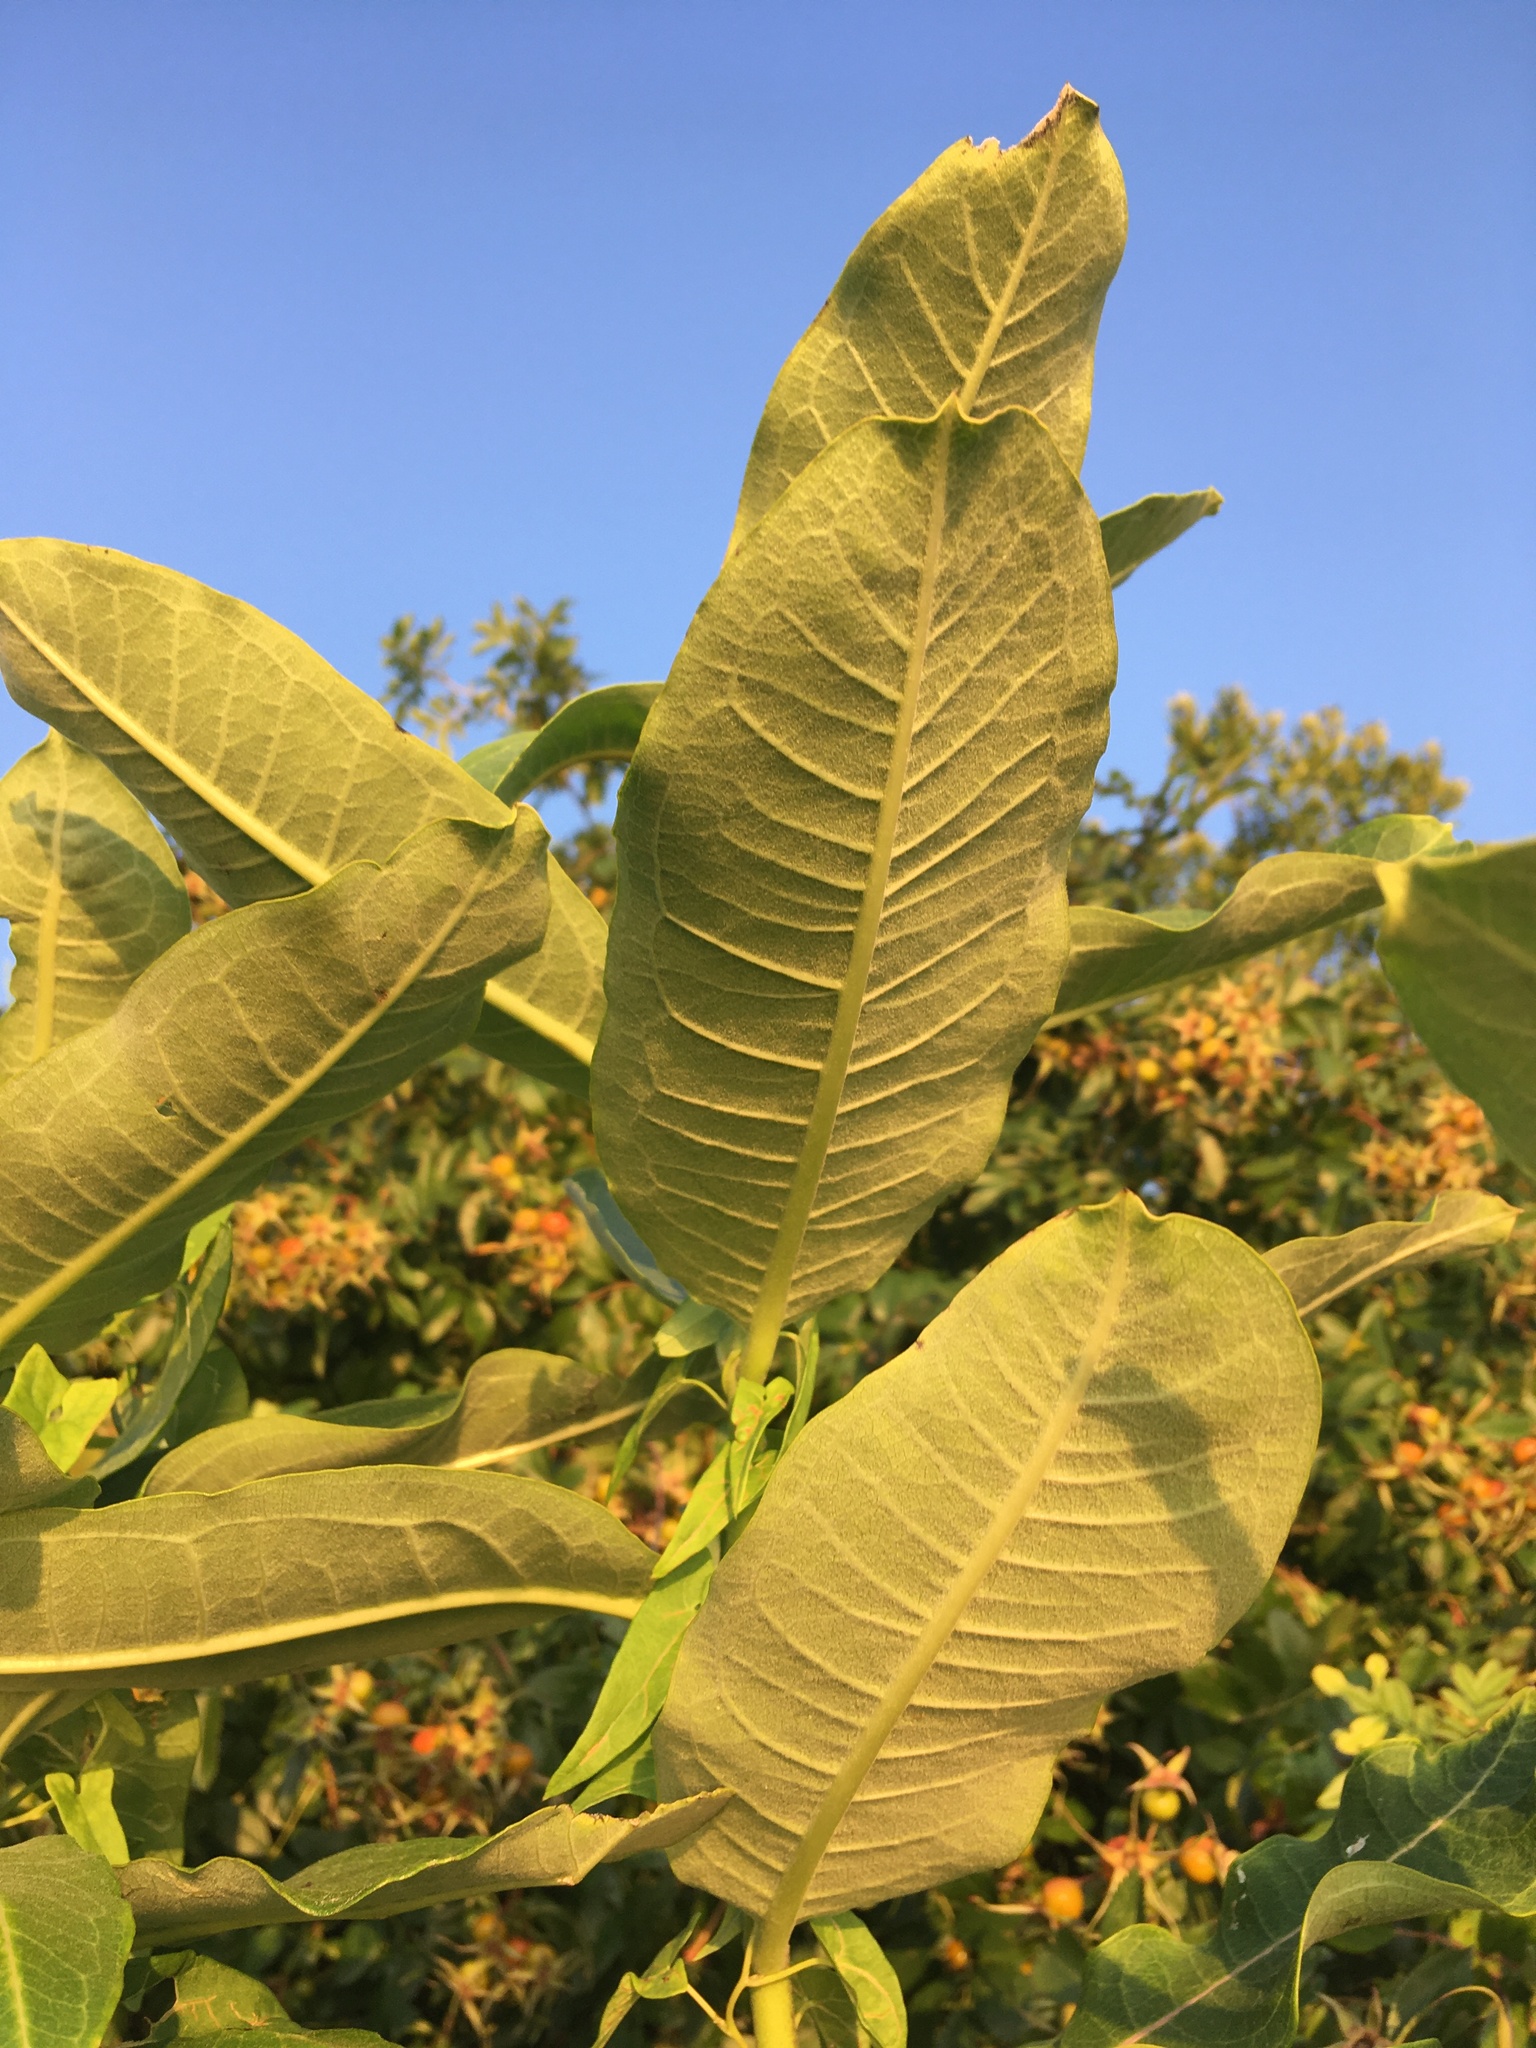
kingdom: Plantae
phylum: Tracheophyta
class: Magnoliopsida
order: Gentianales
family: Apocynaceae
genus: Asclepias
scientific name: Asclepias syriaca
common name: Common milkweed
